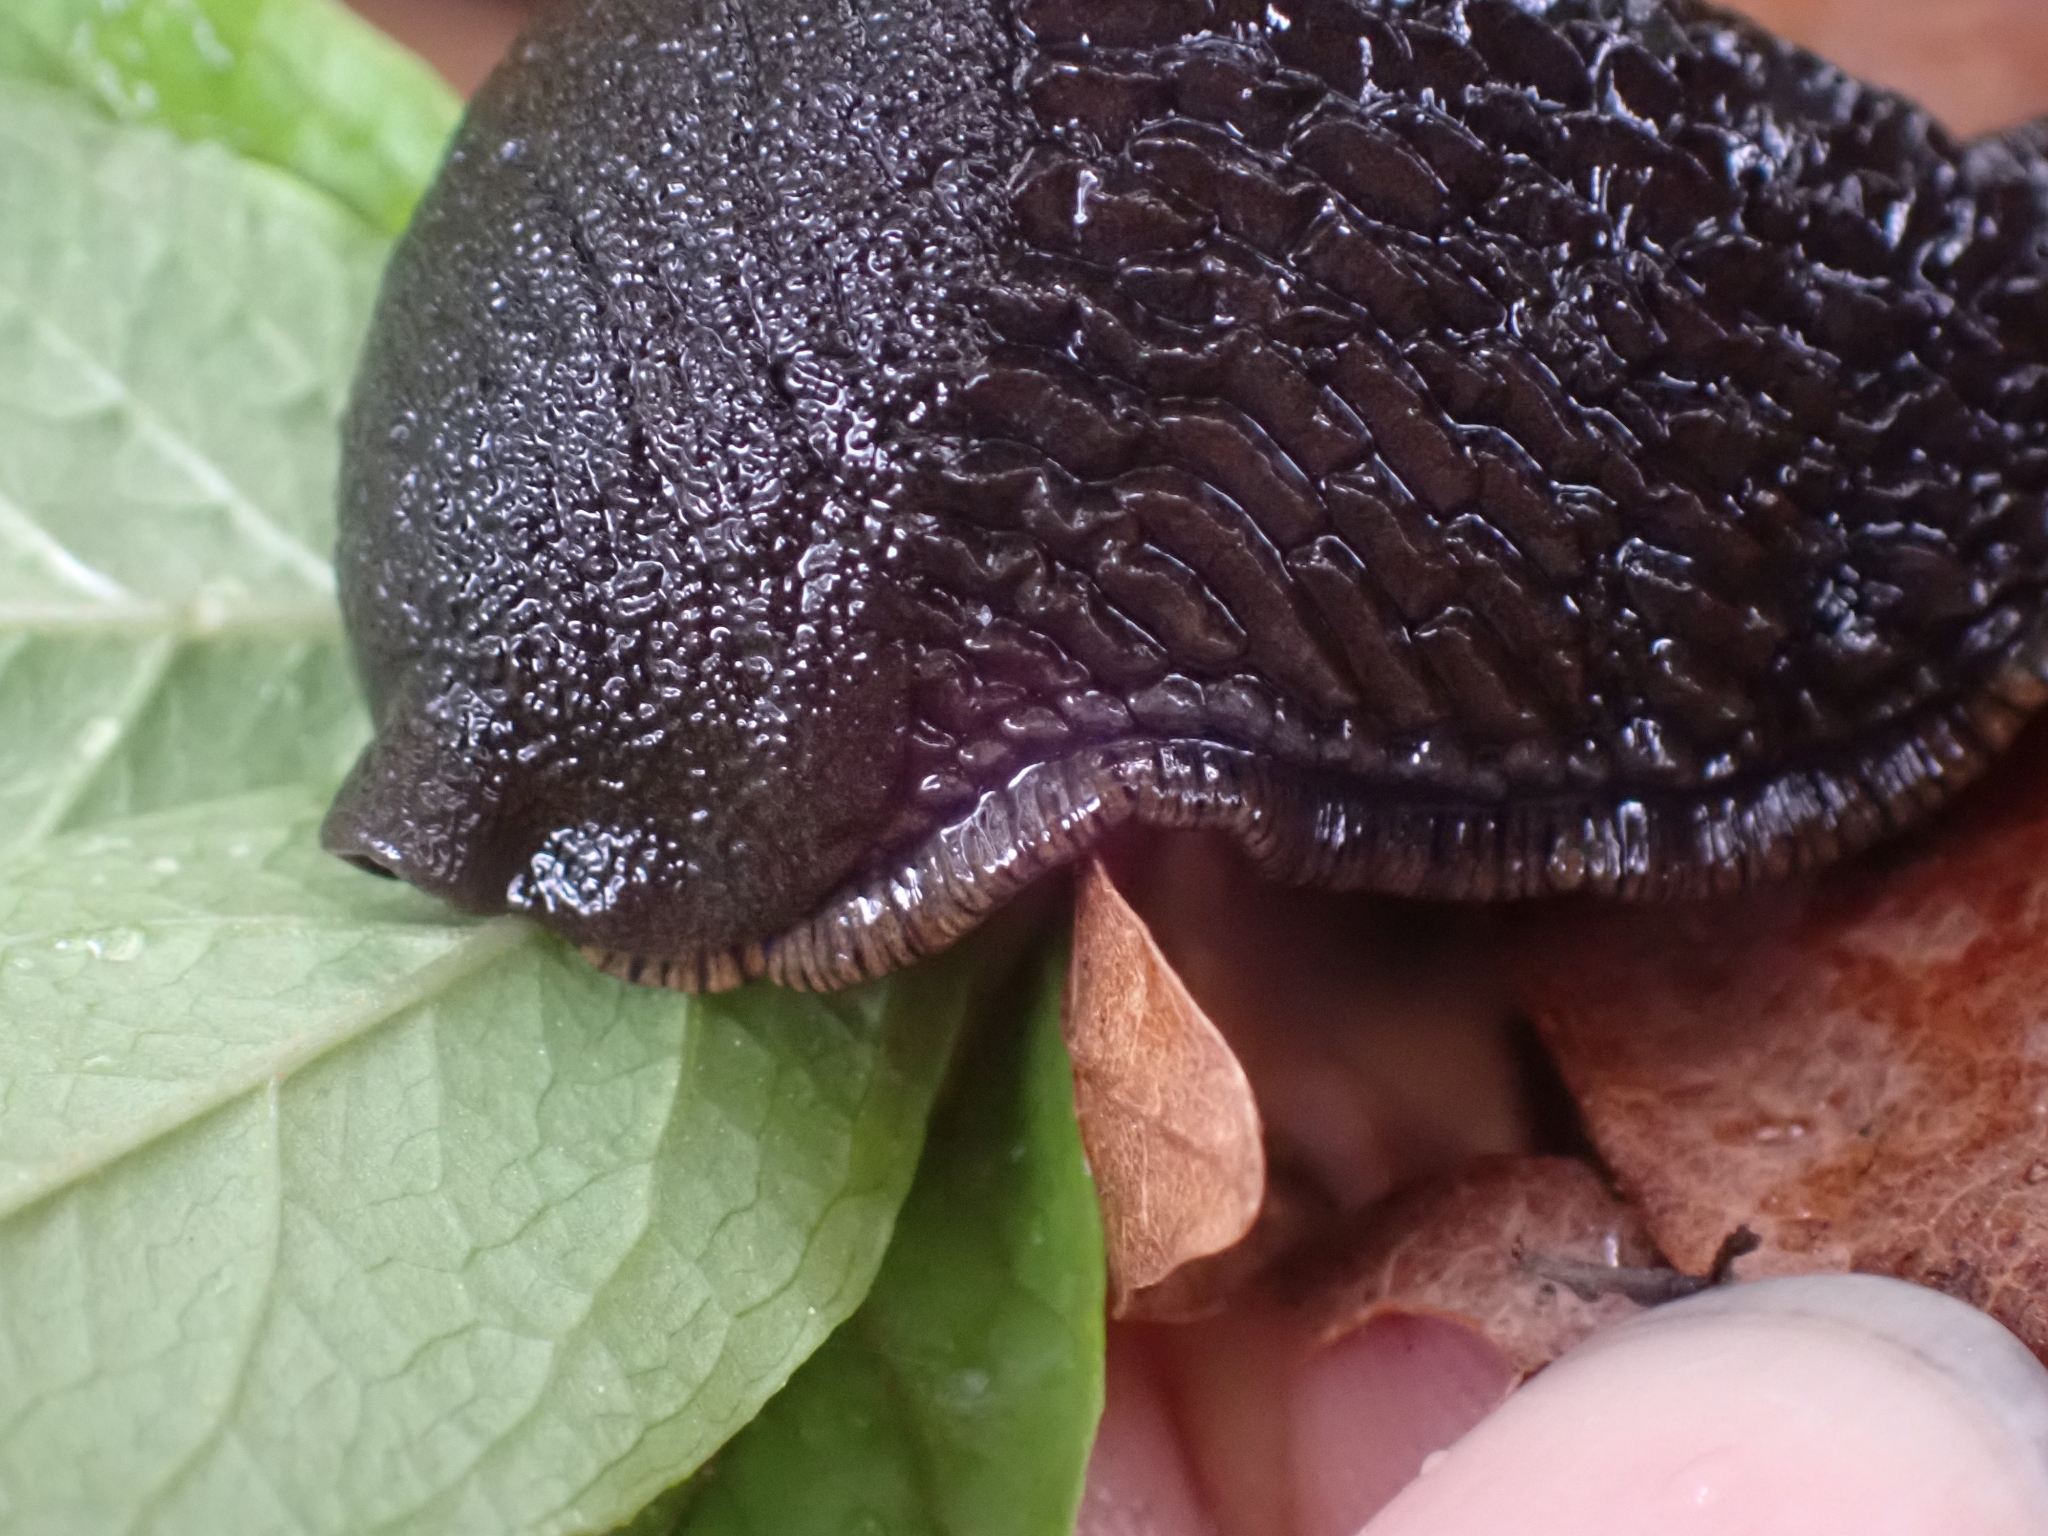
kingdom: Animalia
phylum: Mollusca
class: Gastropoda
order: Stylommatophora
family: Arionidae
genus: Arion
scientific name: Arion
